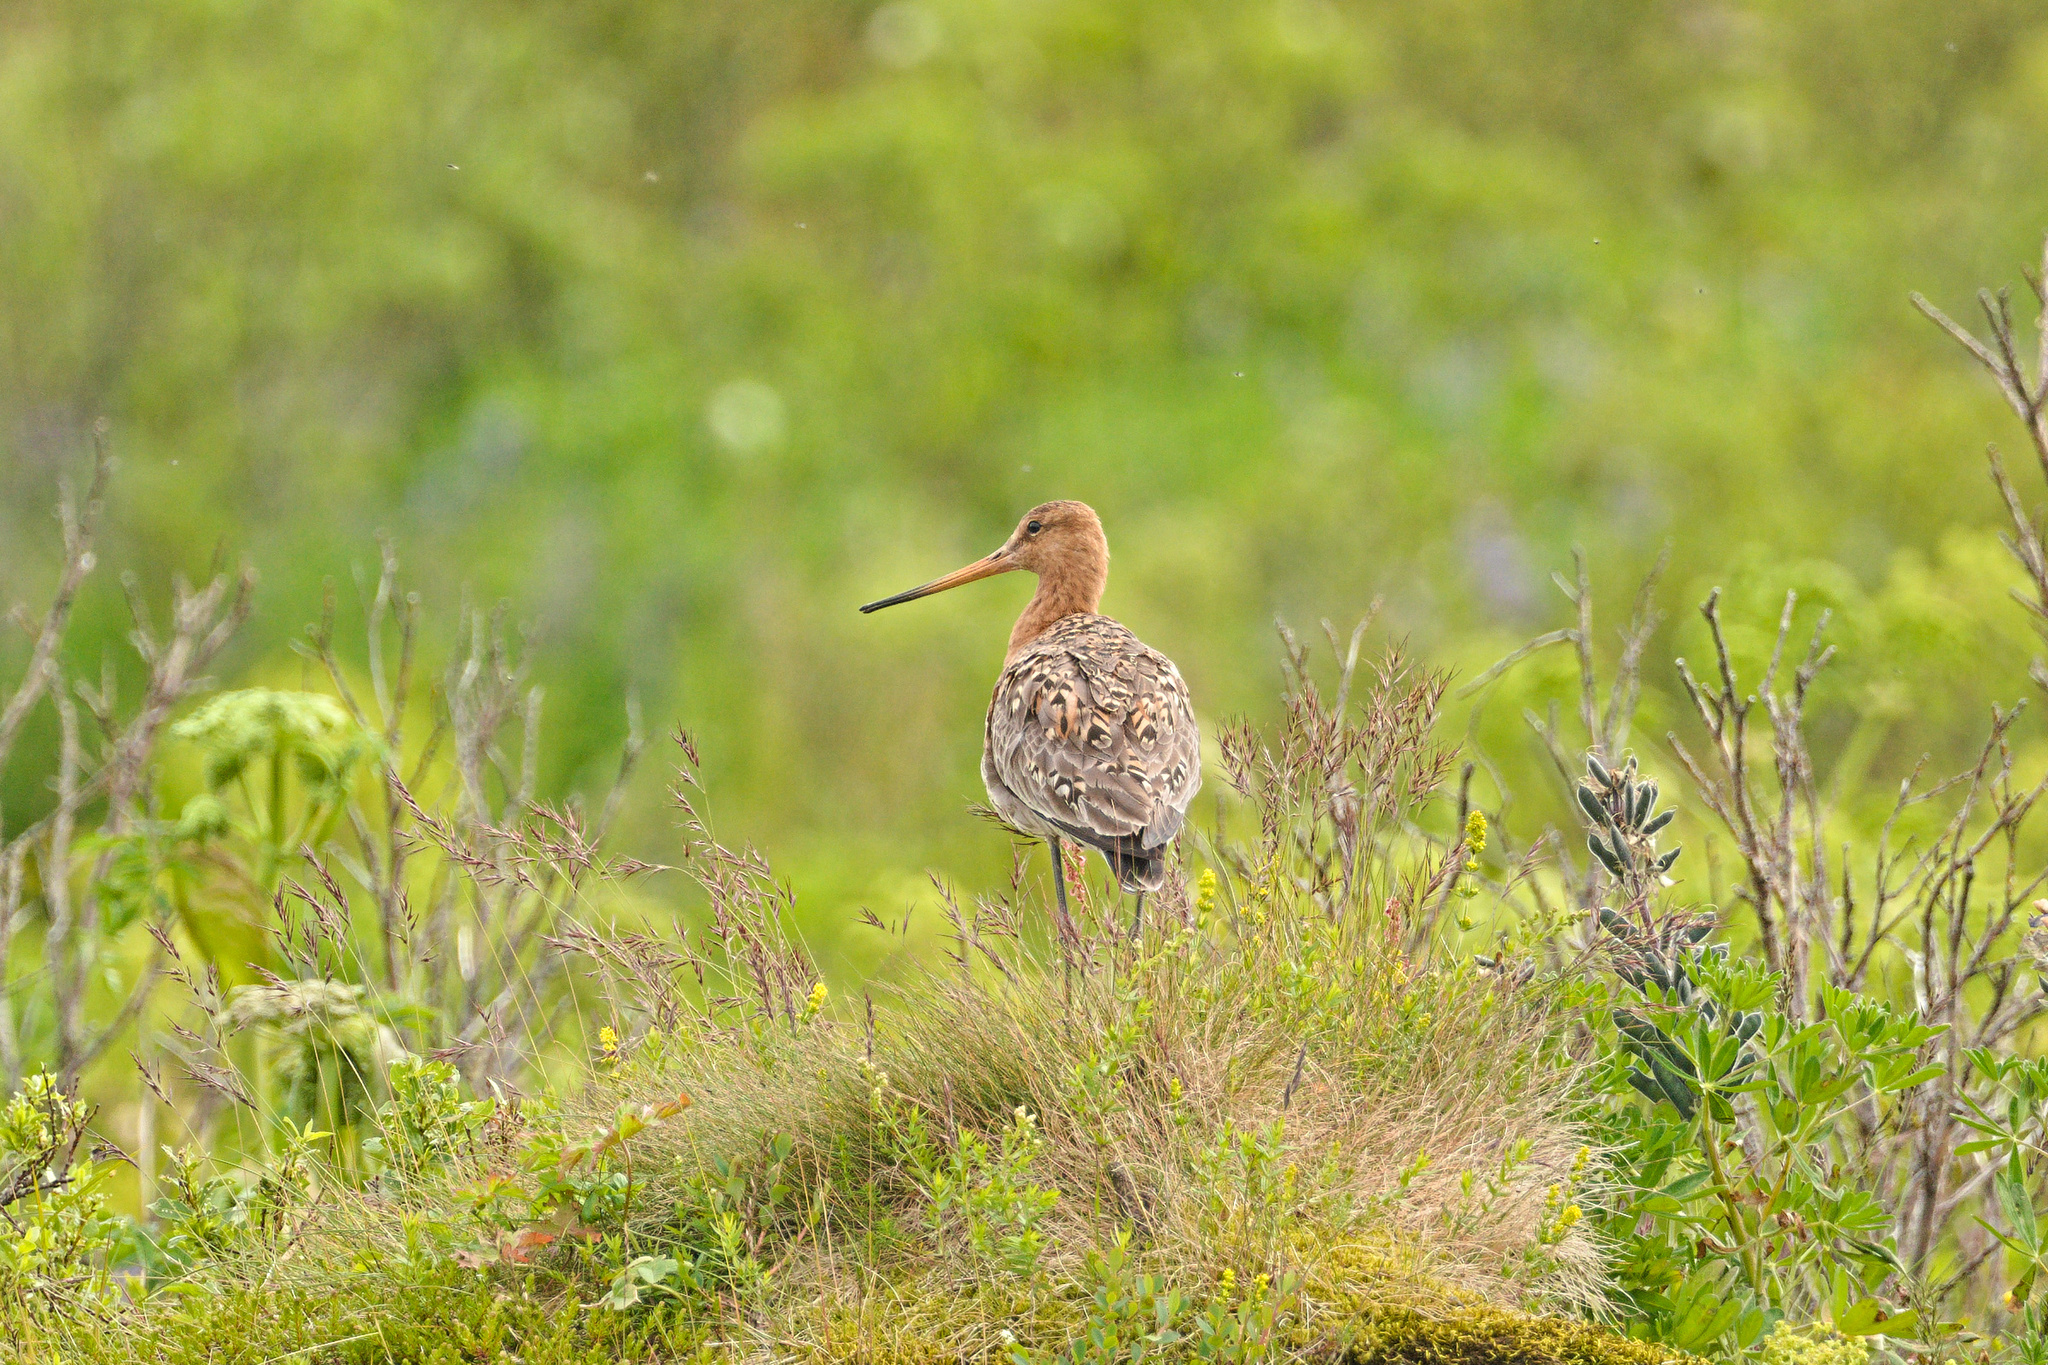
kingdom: Animalia
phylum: Chordata
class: Aves
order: Charadriiformes
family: Scolopacidae
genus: Limosa
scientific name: Limosa limosa
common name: Black-tailed godwit
